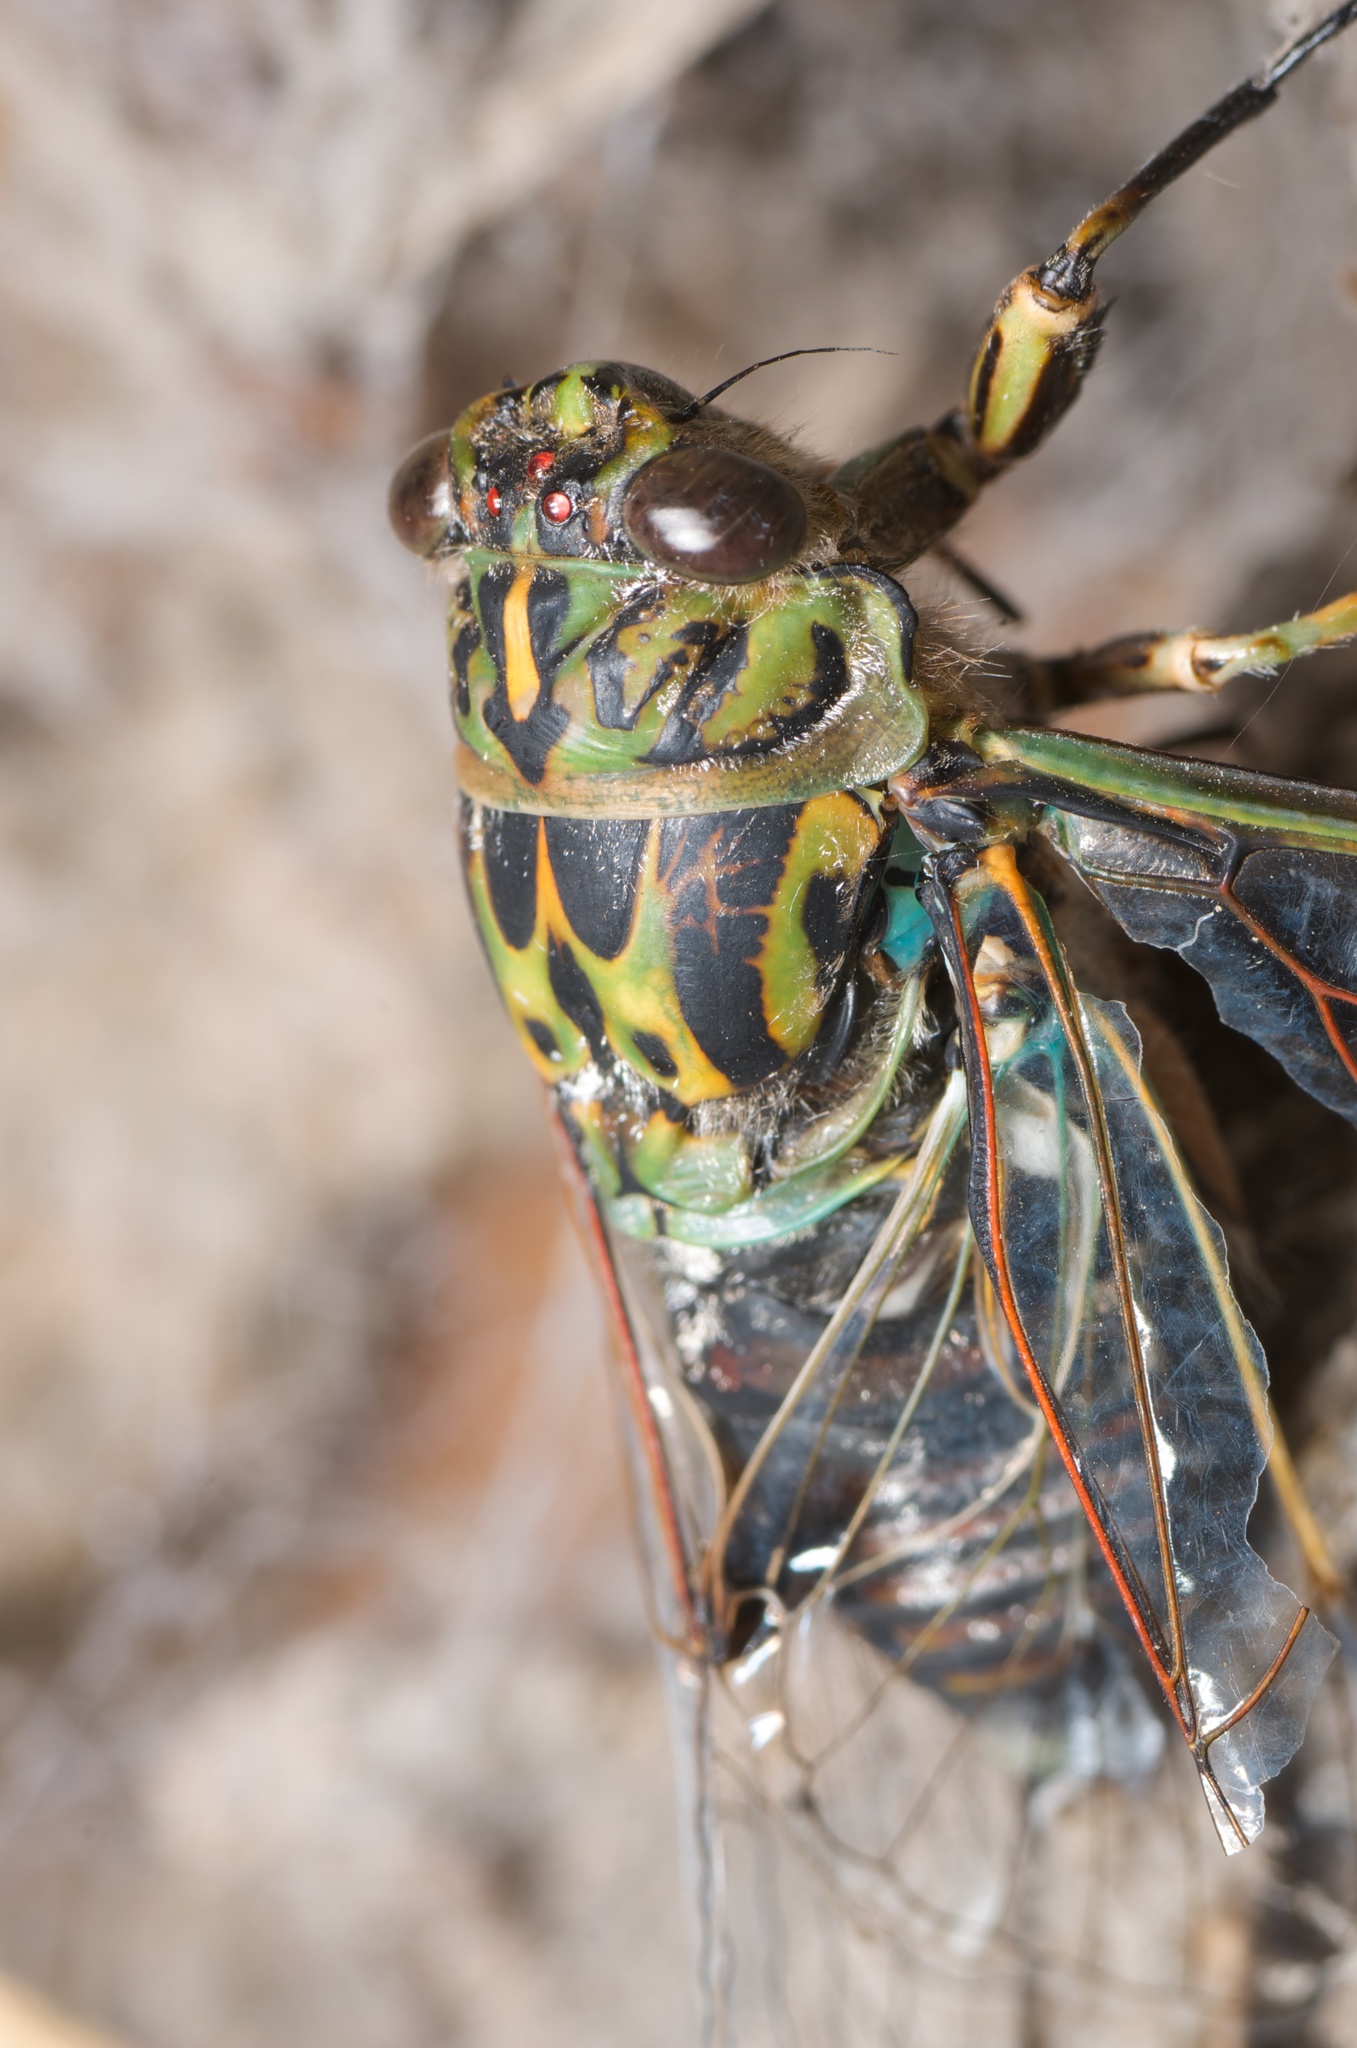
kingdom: Animalia
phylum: Arthropoda
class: Insecta
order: Hemiptera
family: Cicadidae
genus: Amphipsalta
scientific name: Amphipsalta zelandica
